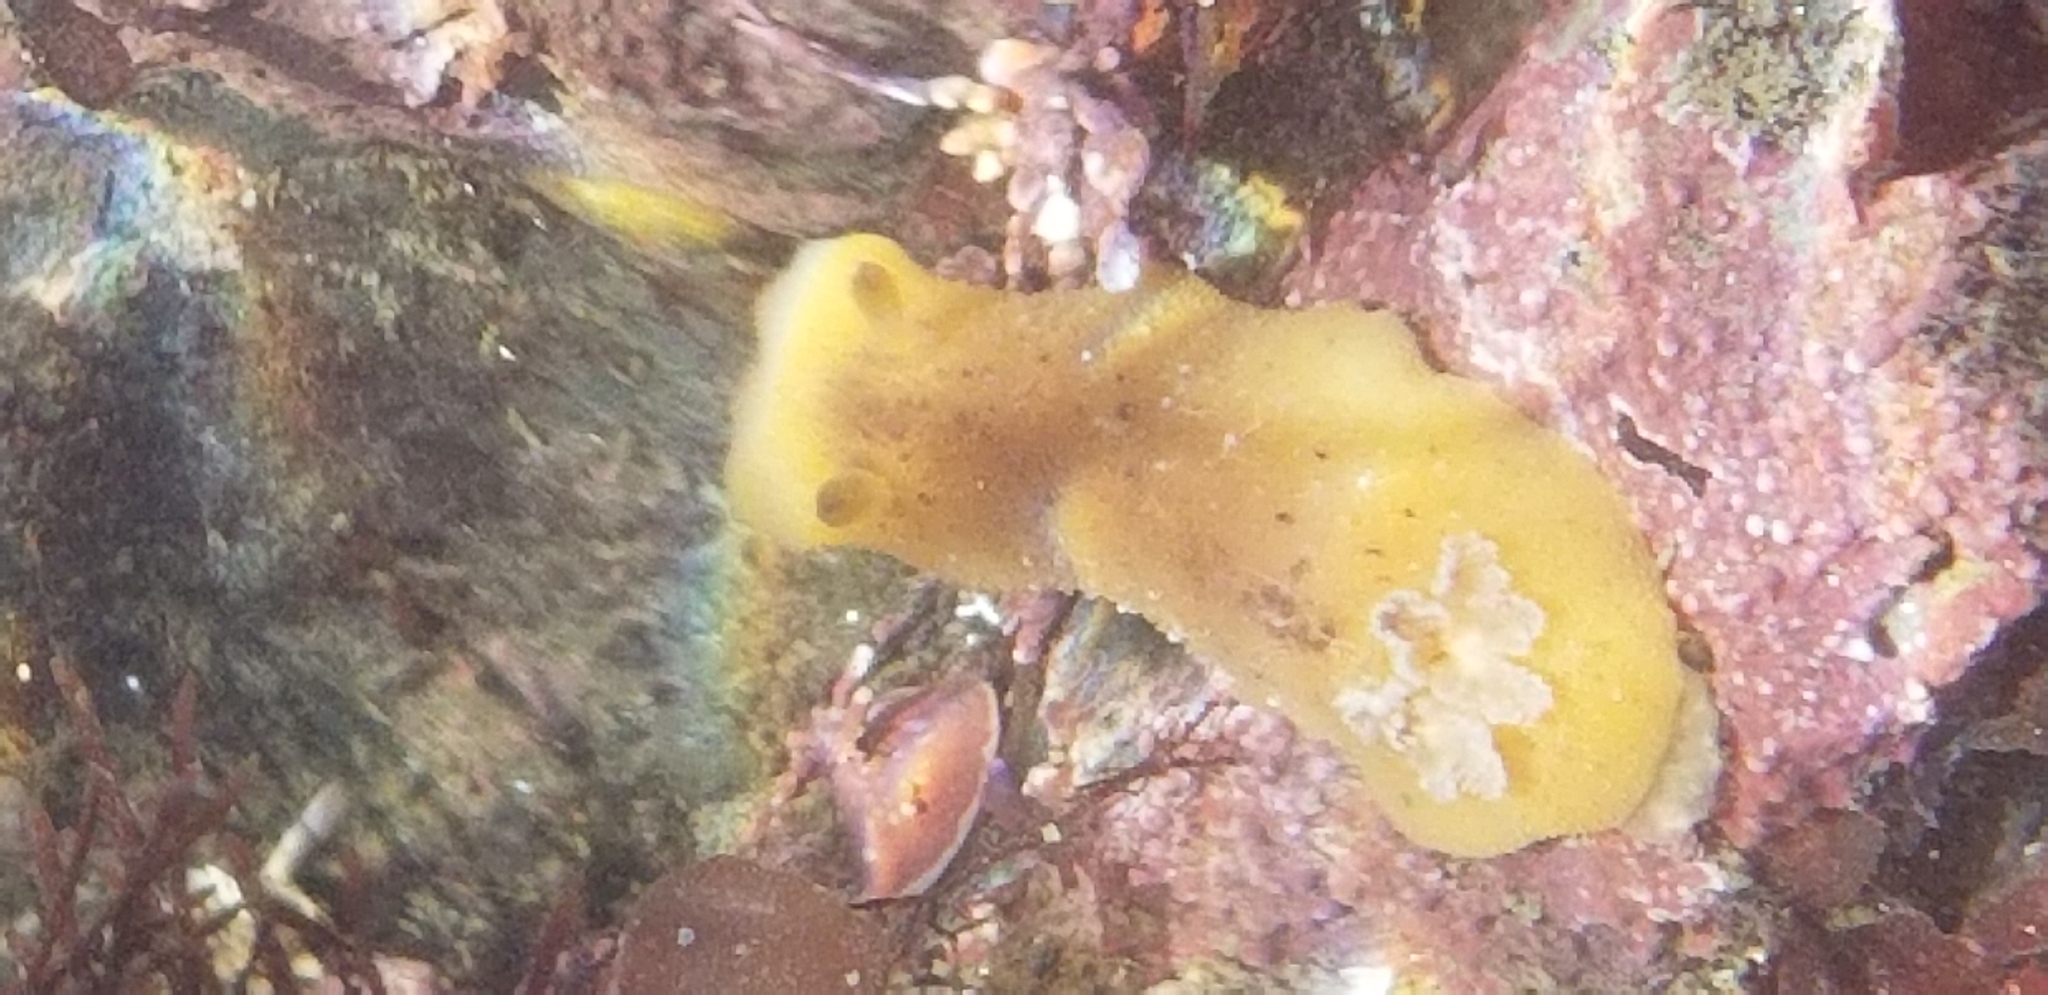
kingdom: Animalia
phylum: Mollusca
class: Gastropoda
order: Nudibranchia
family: Discodorididae
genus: Geitodoris
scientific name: Geitodoris heathi
